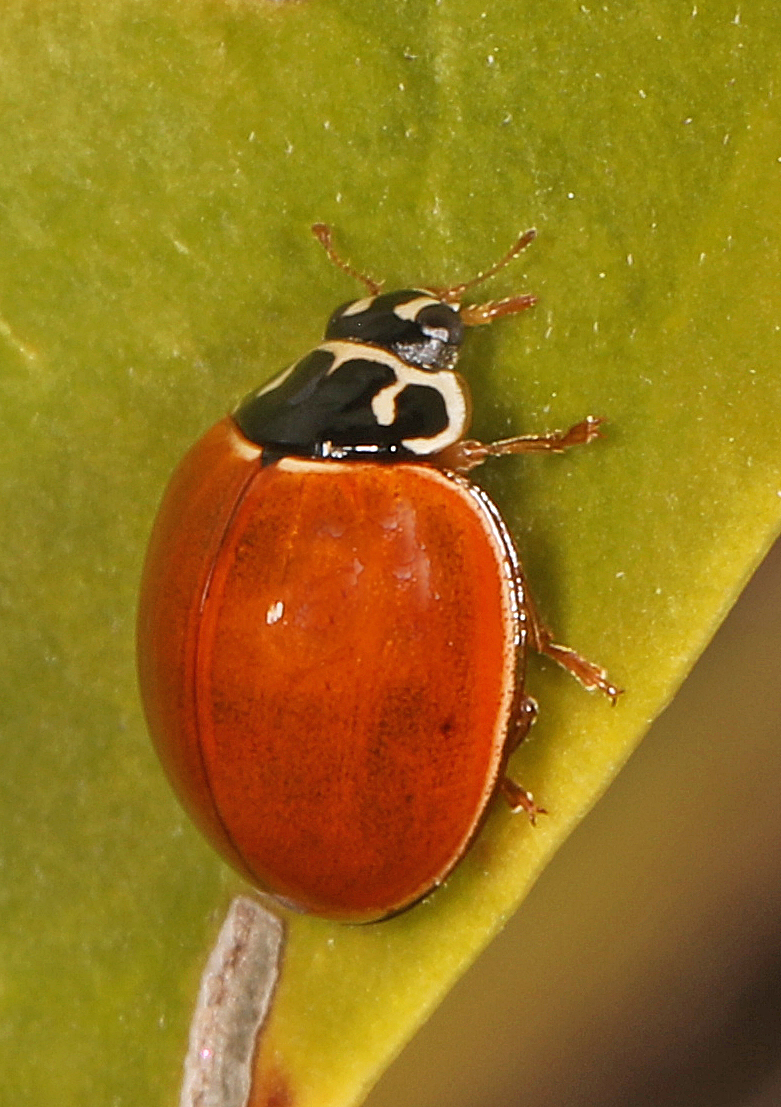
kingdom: Animalia
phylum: Arthropoda
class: Insecta
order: Coleoptera
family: Coccinellidae
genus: Cycloneda
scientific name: Cycloneda munda
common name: Polished lady beetle
